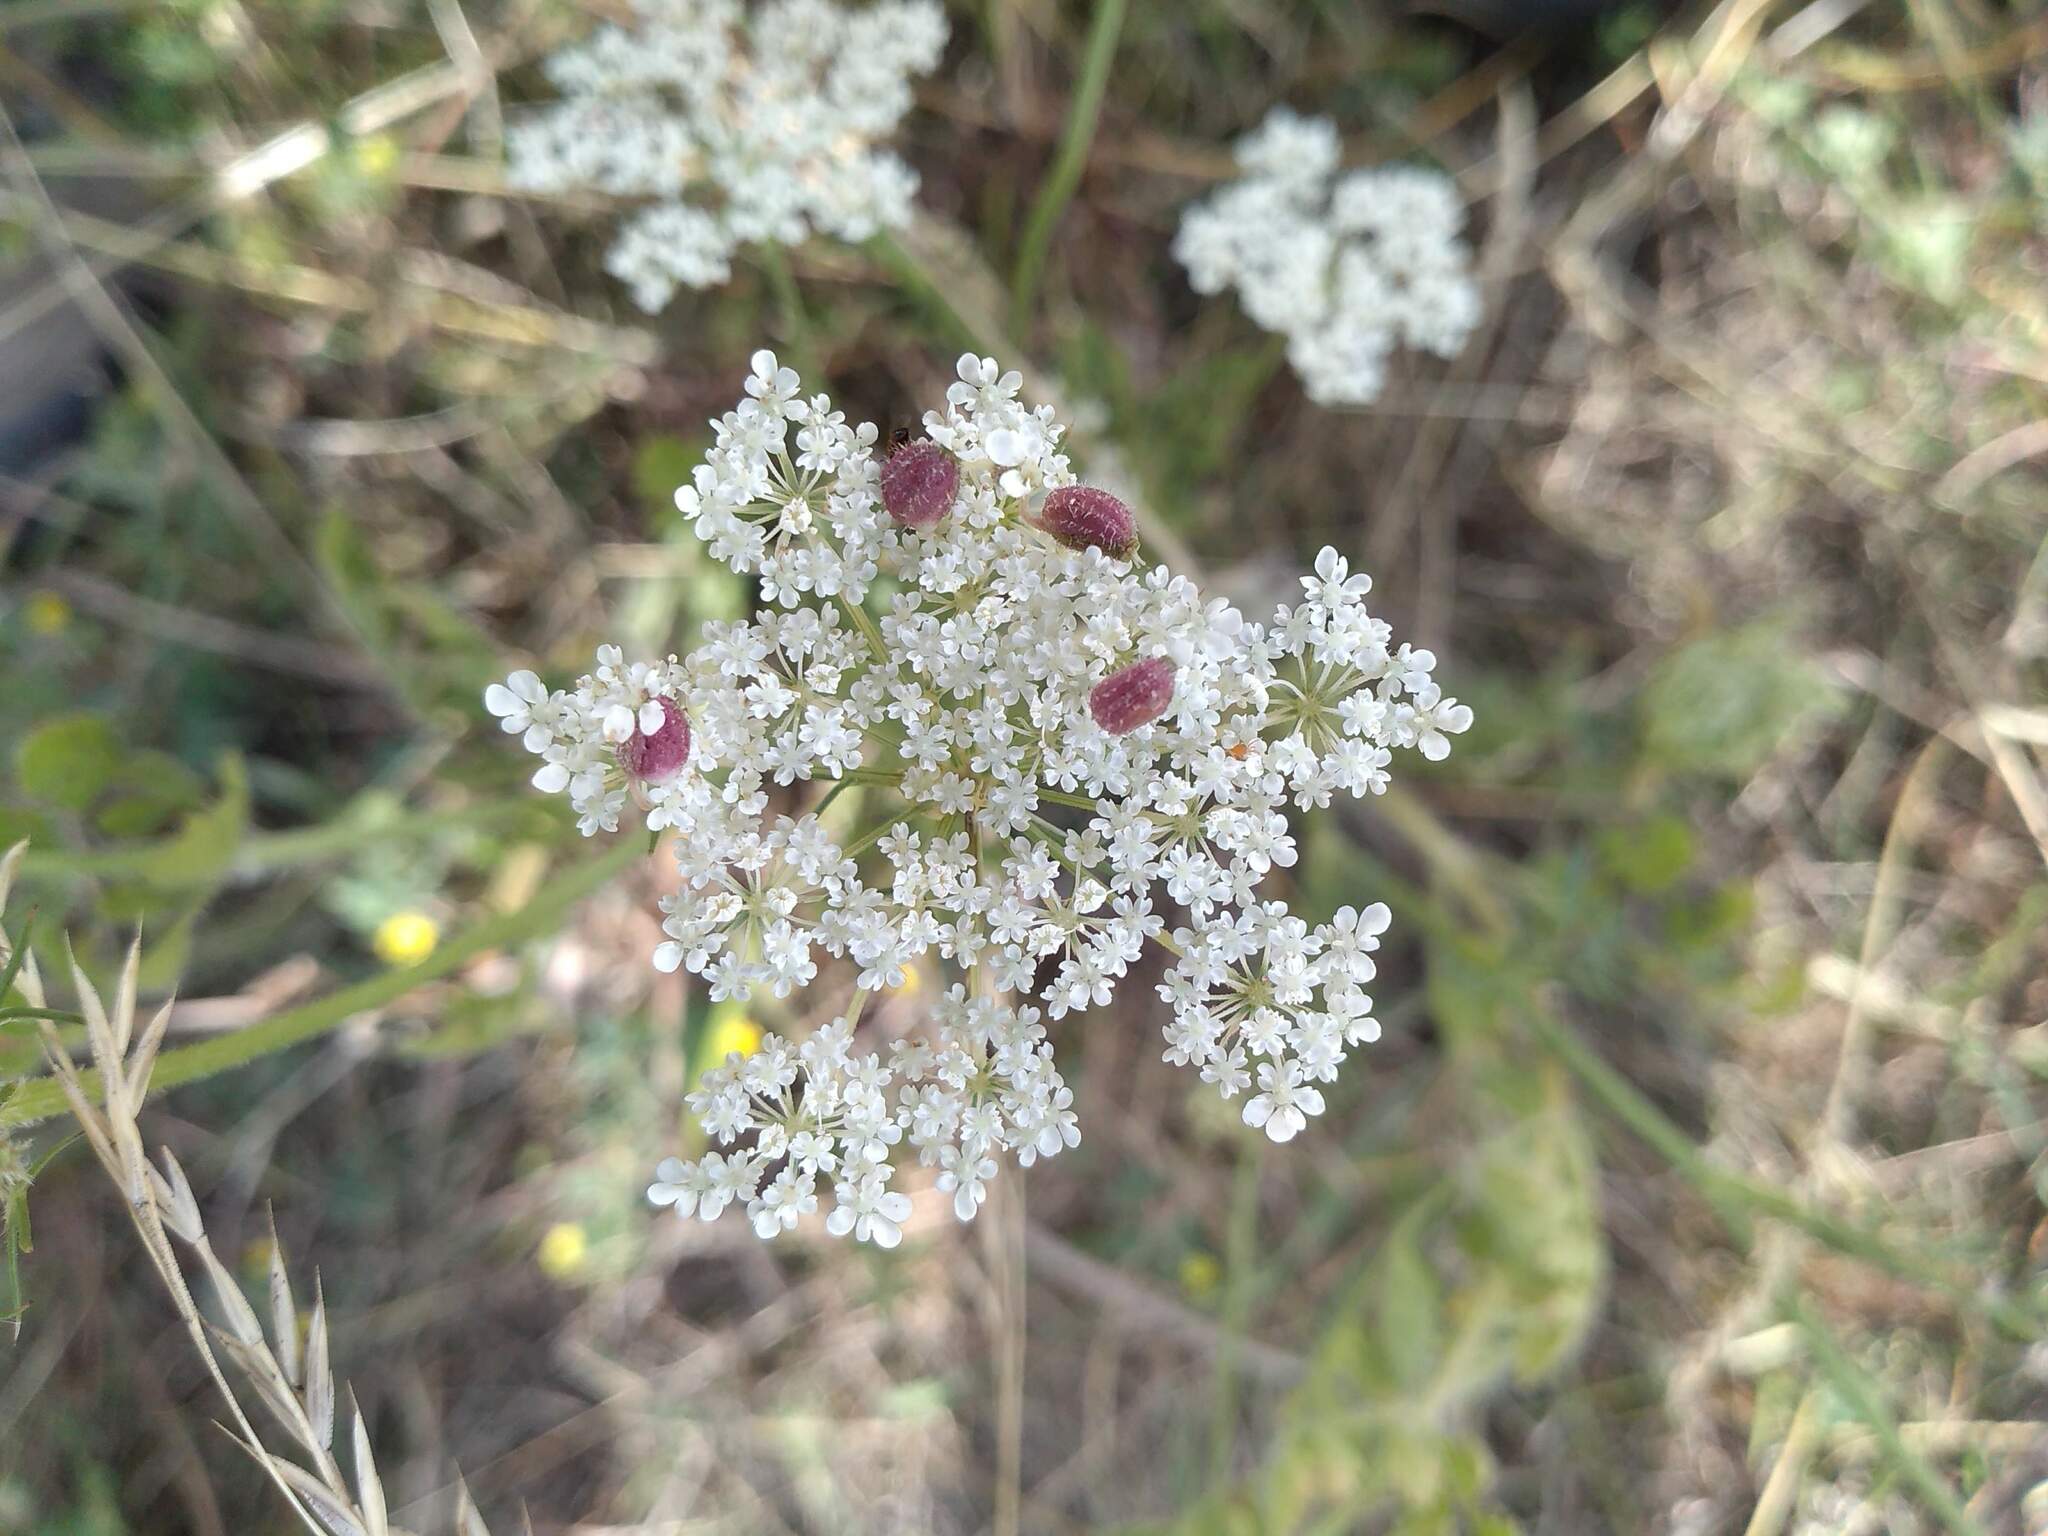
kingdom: Animalia
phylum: Arthropoda
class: Insecta
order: Diptera
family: Cecidomyiidae
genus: Kiefferia
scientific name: Kiefferia pericarpiicola
